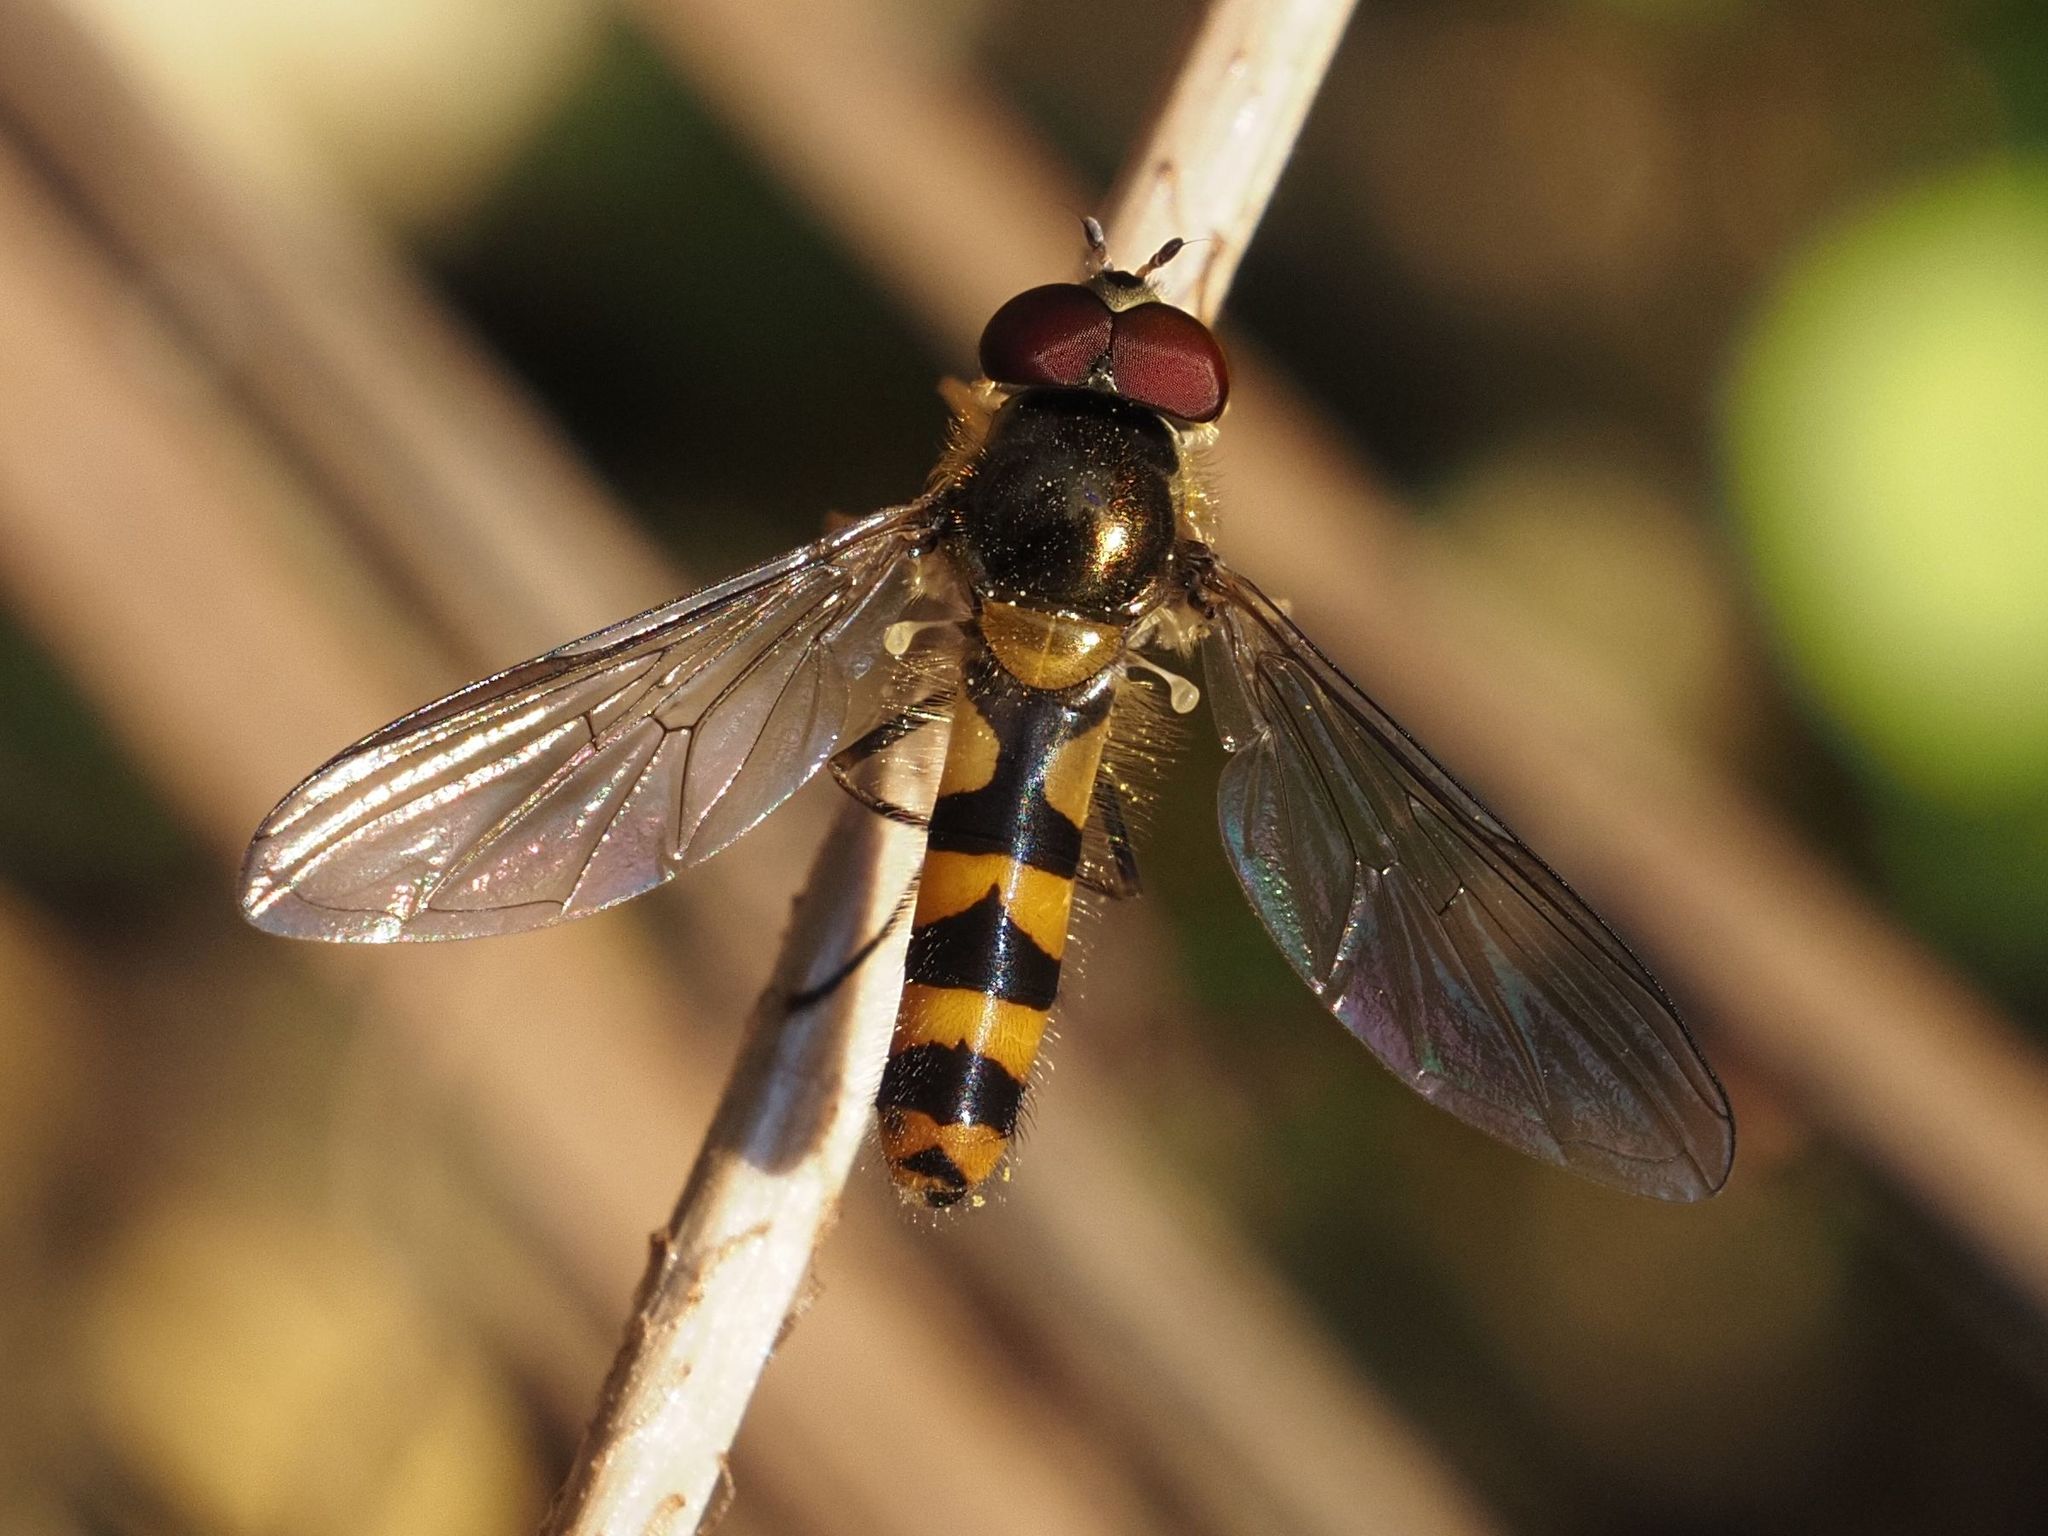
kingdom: Animalia
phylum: Arthropoda
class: Insecta
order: Diptera
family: Syrphidae
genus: Meliscaeva
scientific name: Meliscaeva cinctella
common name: American thintail fly
